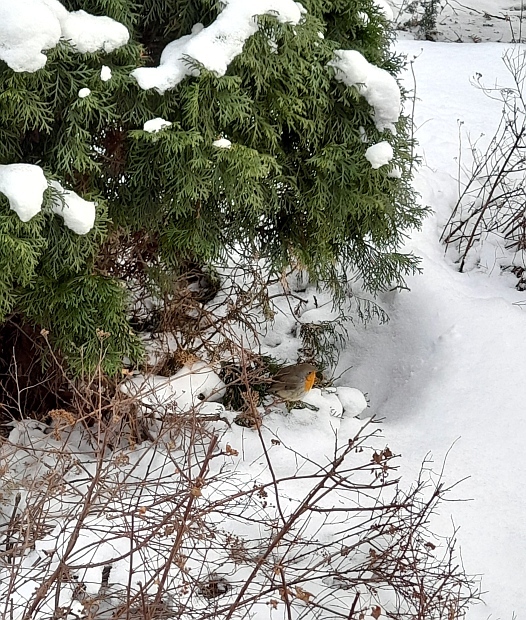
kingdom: Animalia
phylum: Chordata
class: Aves
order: Passeriformes
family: Muscicapidae
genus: Erithacus
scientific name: Erithacus rubecula
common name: European robin
